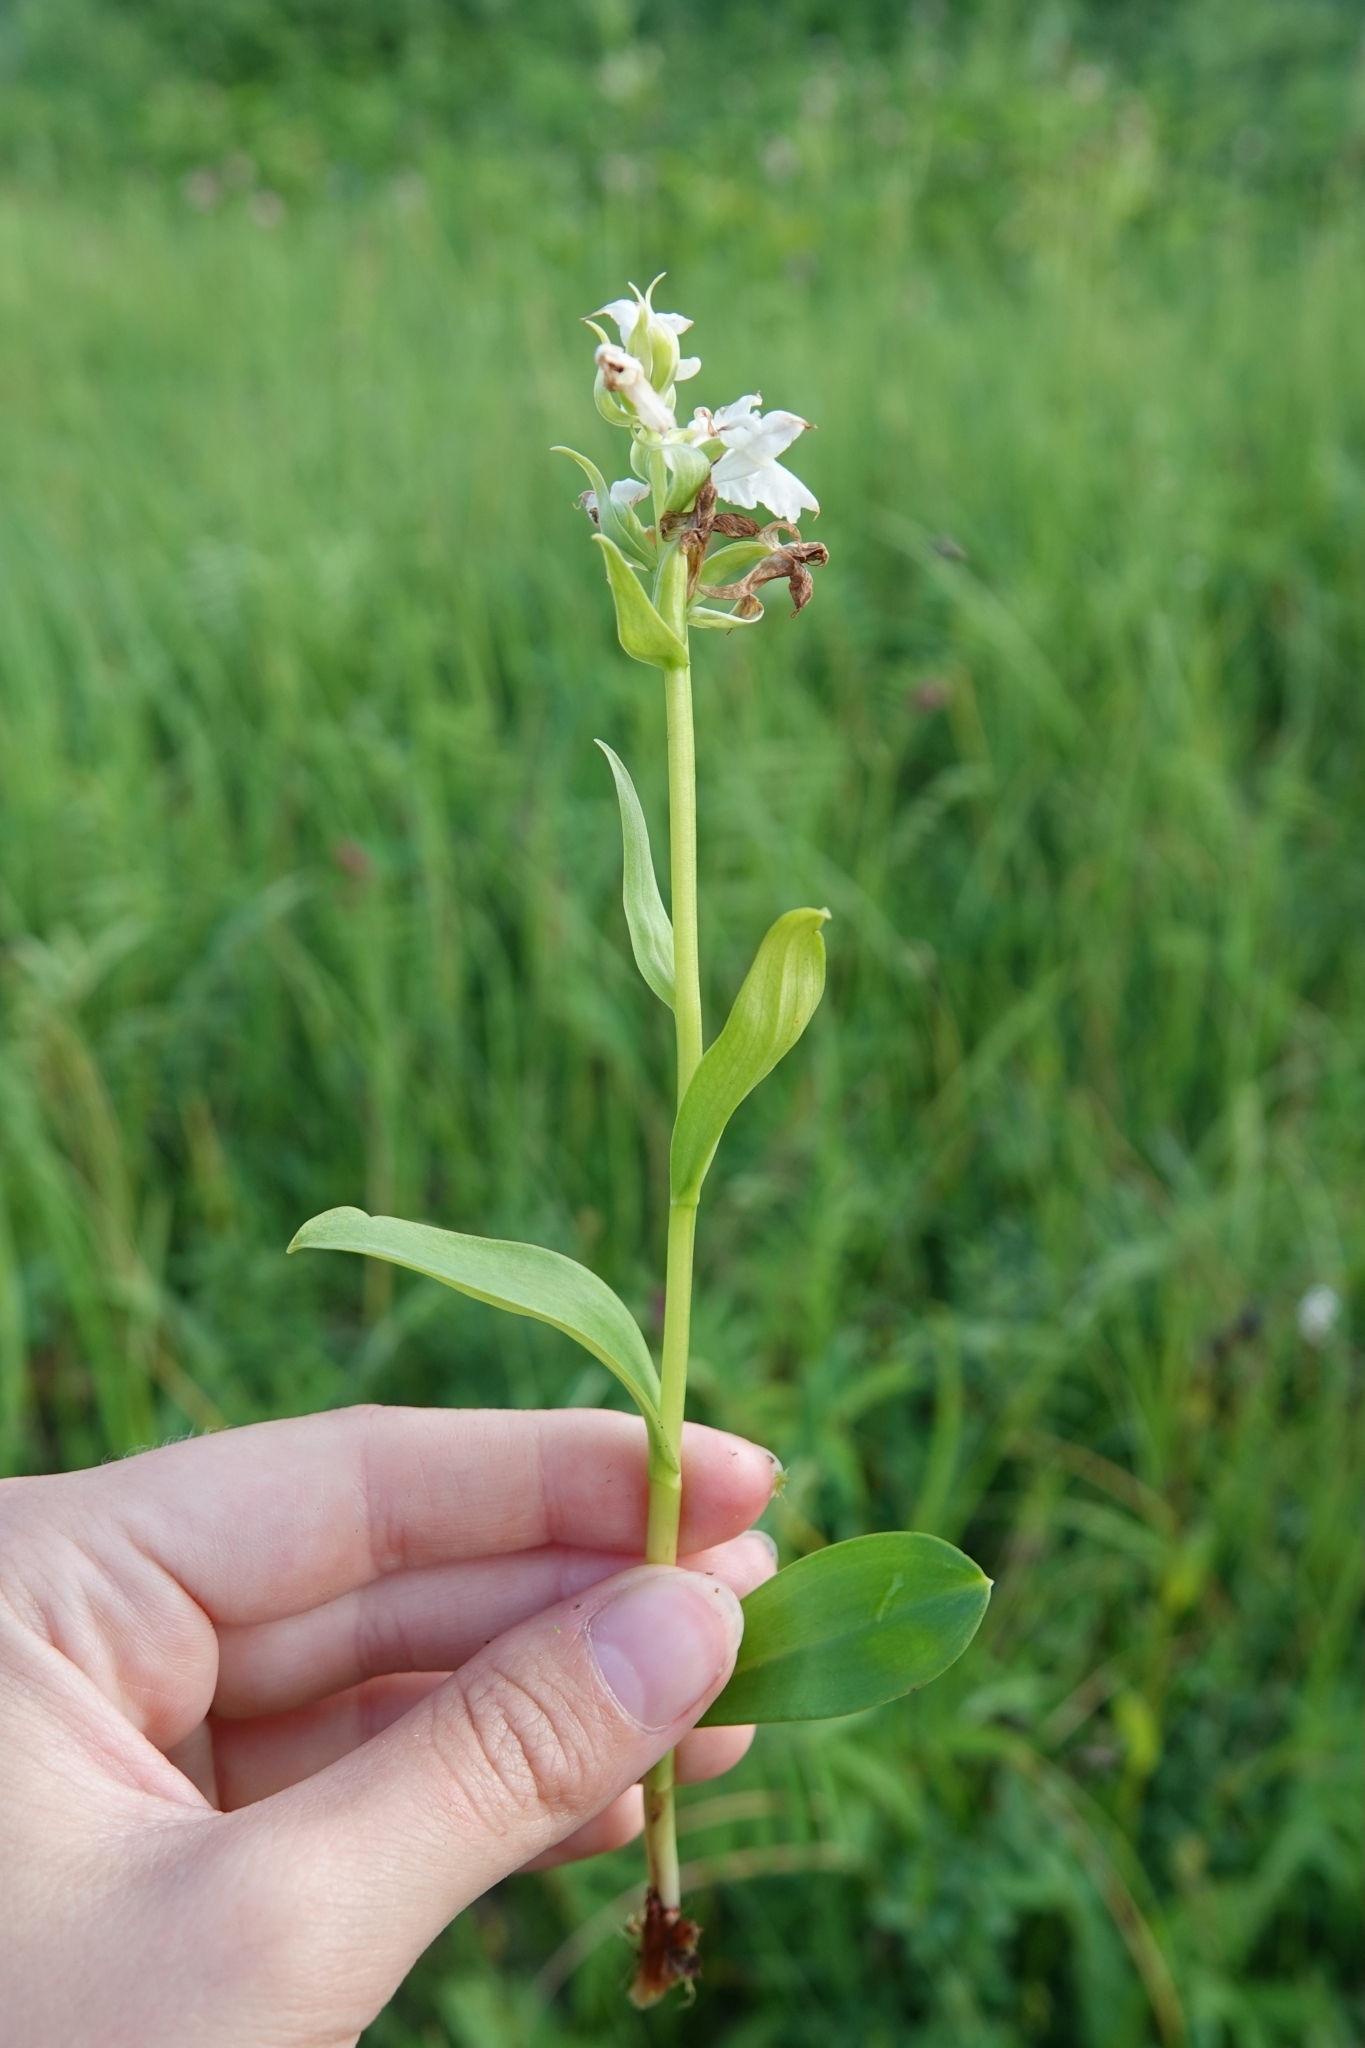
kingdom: Plantae
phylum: Tracheophyta
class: Liliopsida
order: Asparagales
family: Orchidaceae
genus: Dactylorhiza
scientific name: Dactylorhiza aristata
